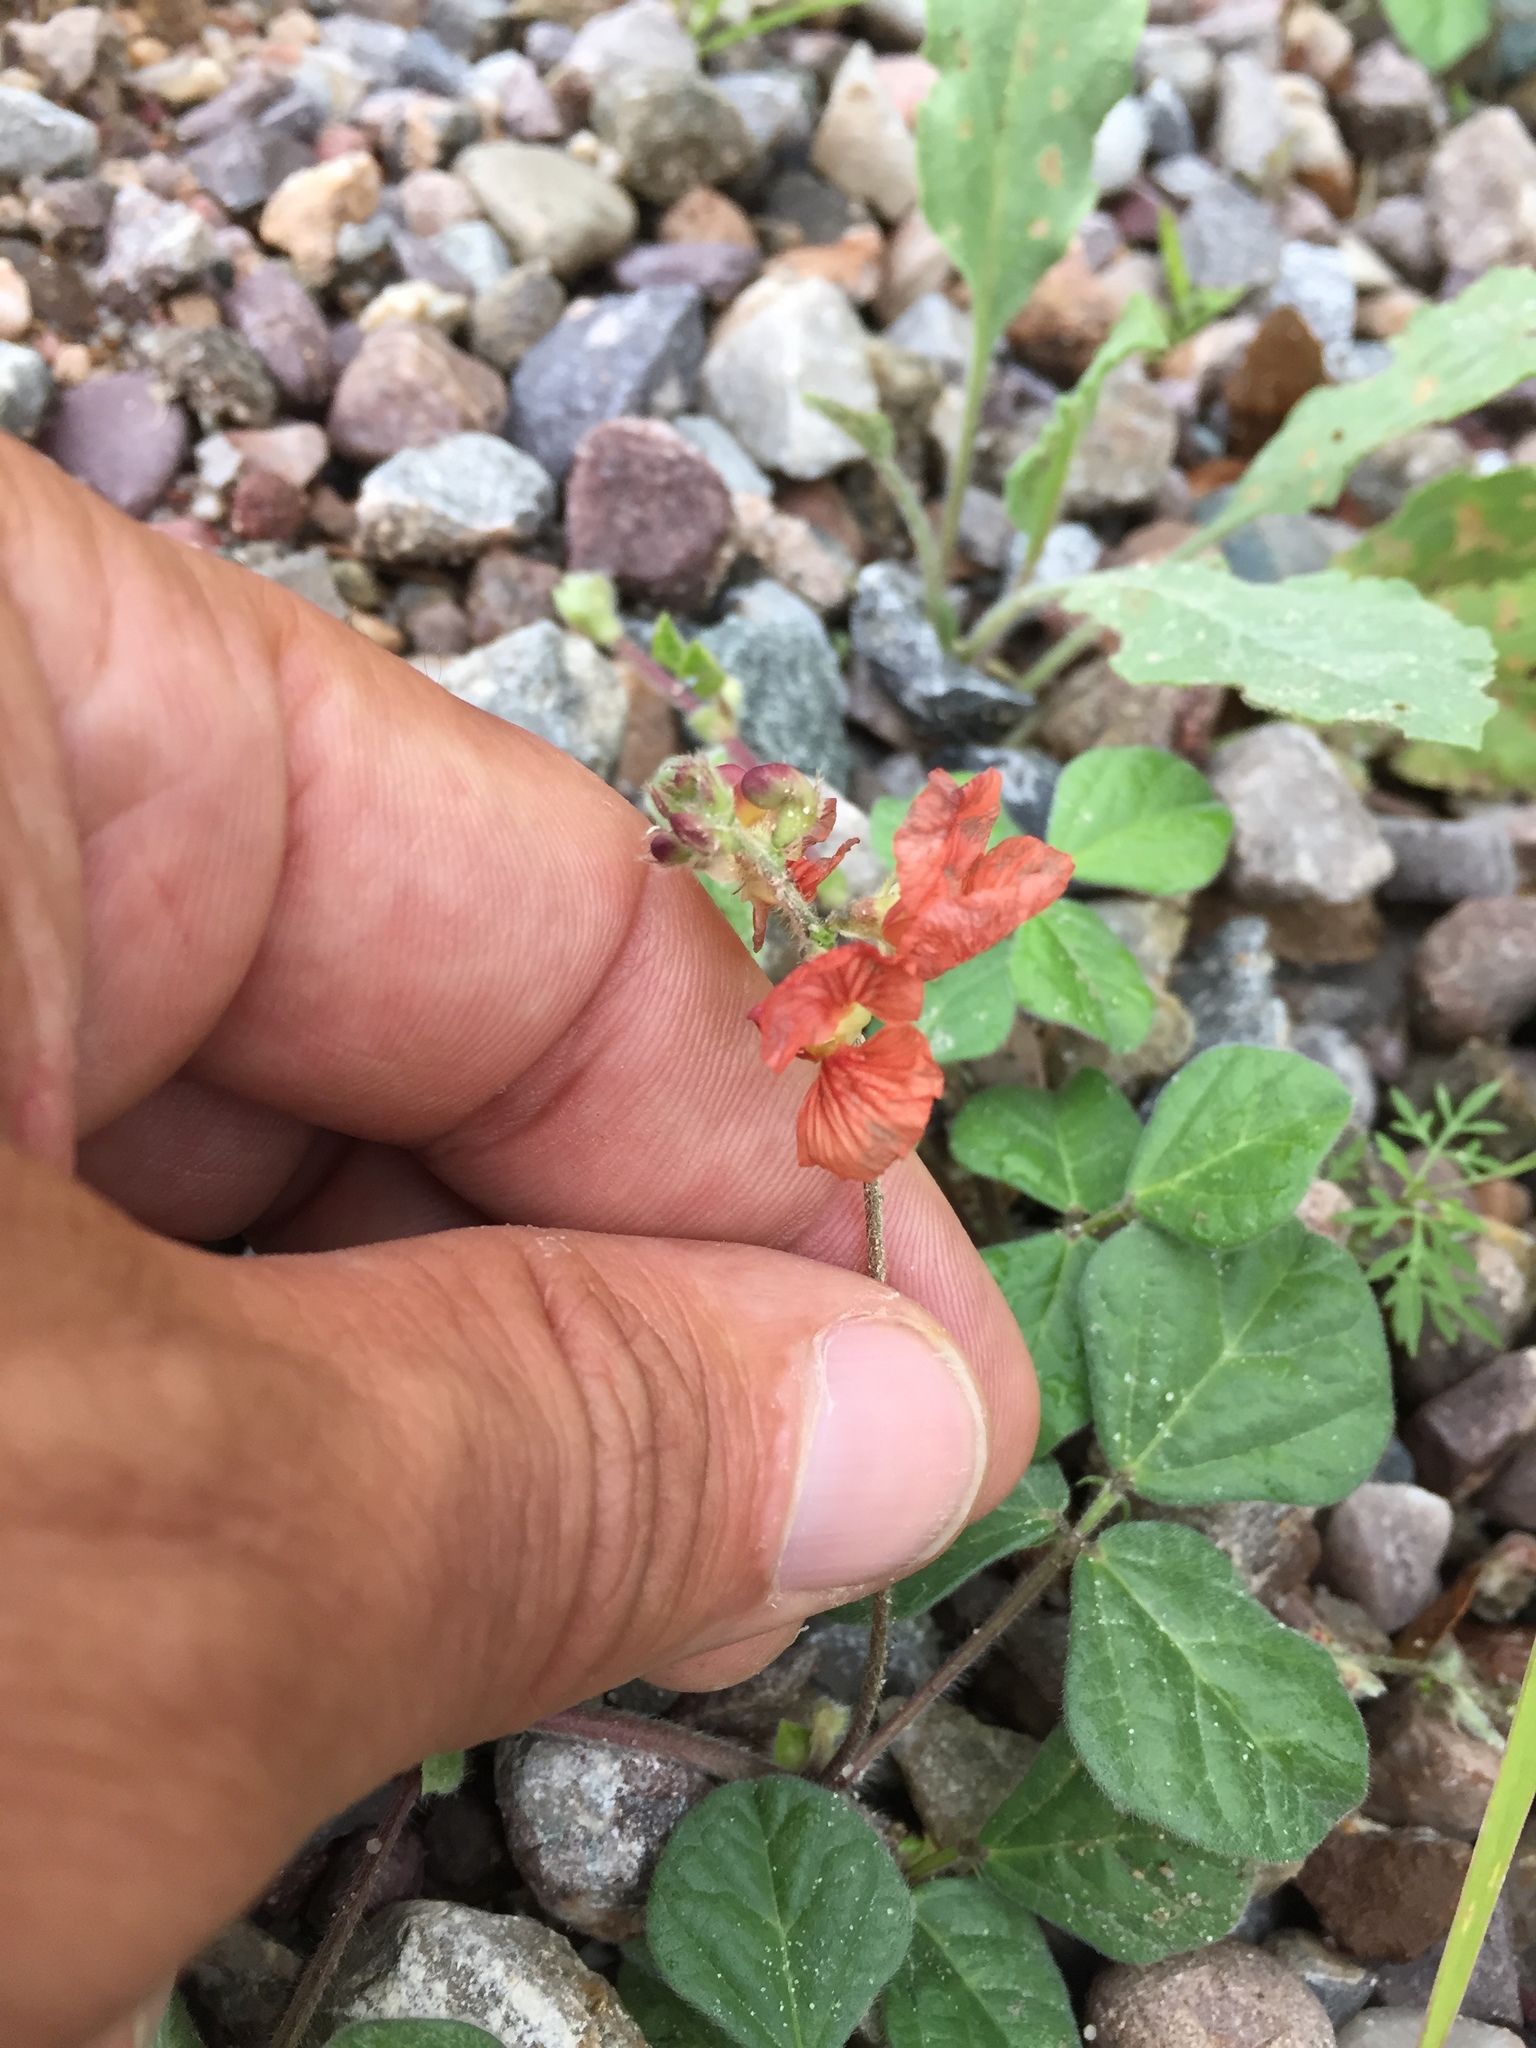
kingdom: Plantae
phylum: Tracheophyta
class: Magnoliopsida
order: Fabales
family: Fabaceae
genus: Macroptilium
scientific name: Macroptilium gibbosifolium
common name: Variableleaf bushbean
